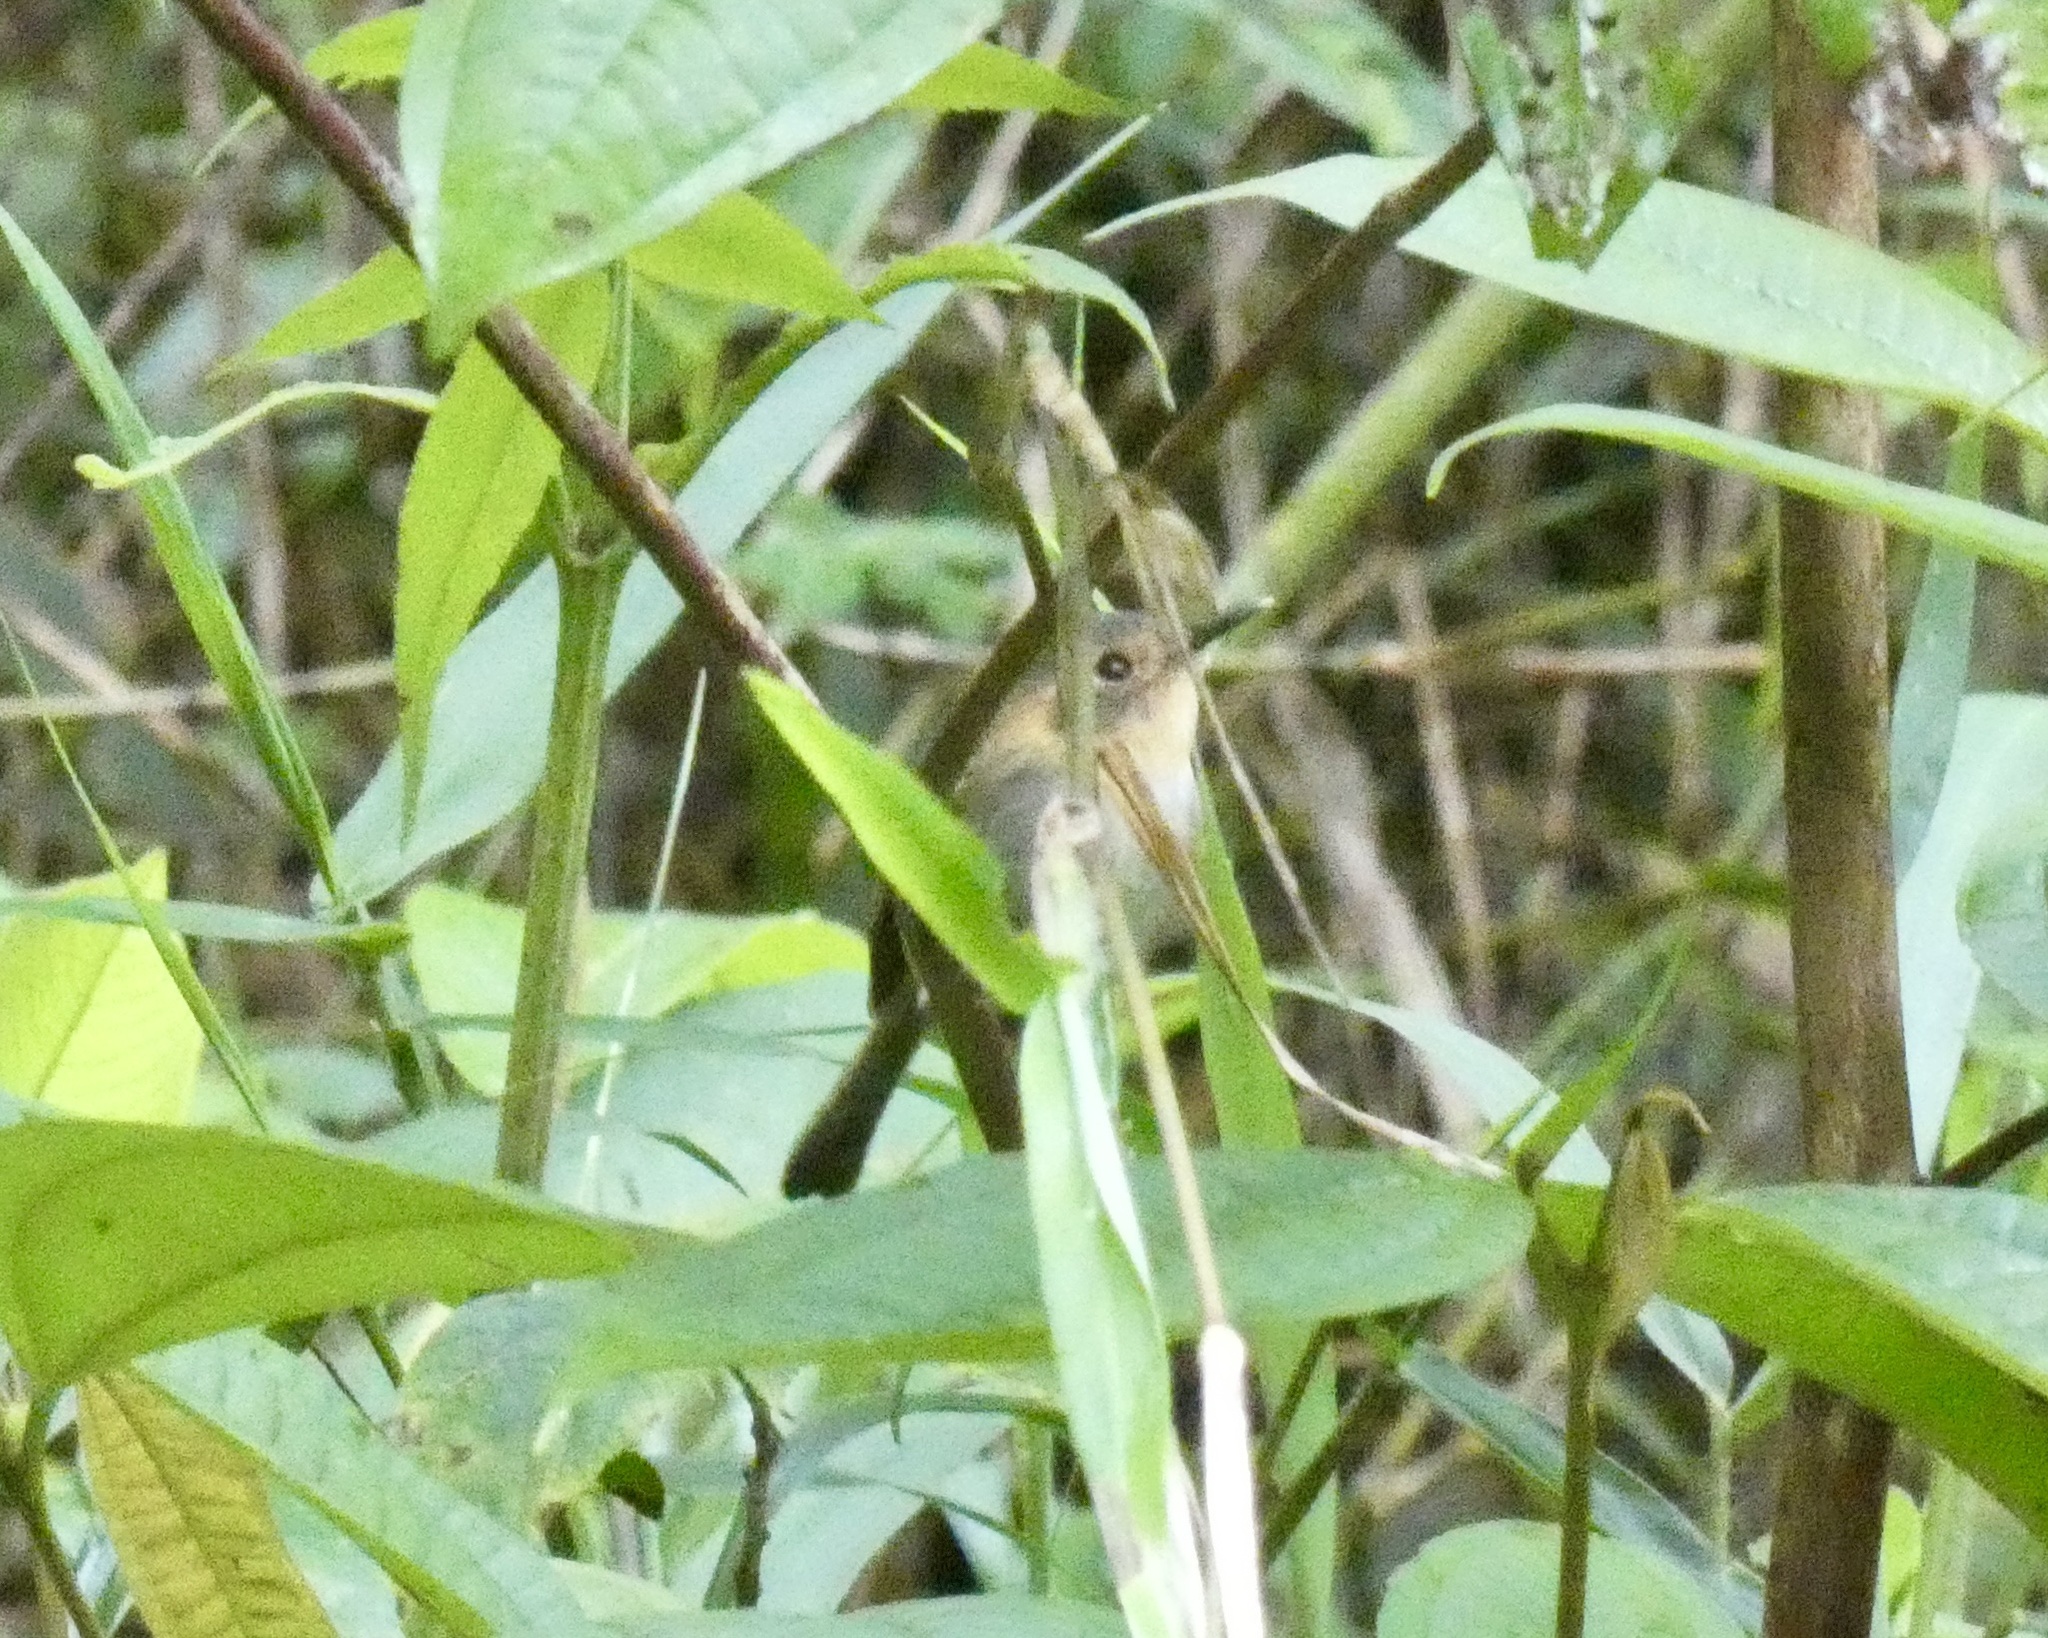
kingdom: Animalia
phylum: Chordata
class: Aves
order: Passeriformes
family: Tyrannidae
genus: Poecilotriccus
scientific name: Poecilotriccus plumbeiceps
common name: Ochre-faced tody-flycatcher
